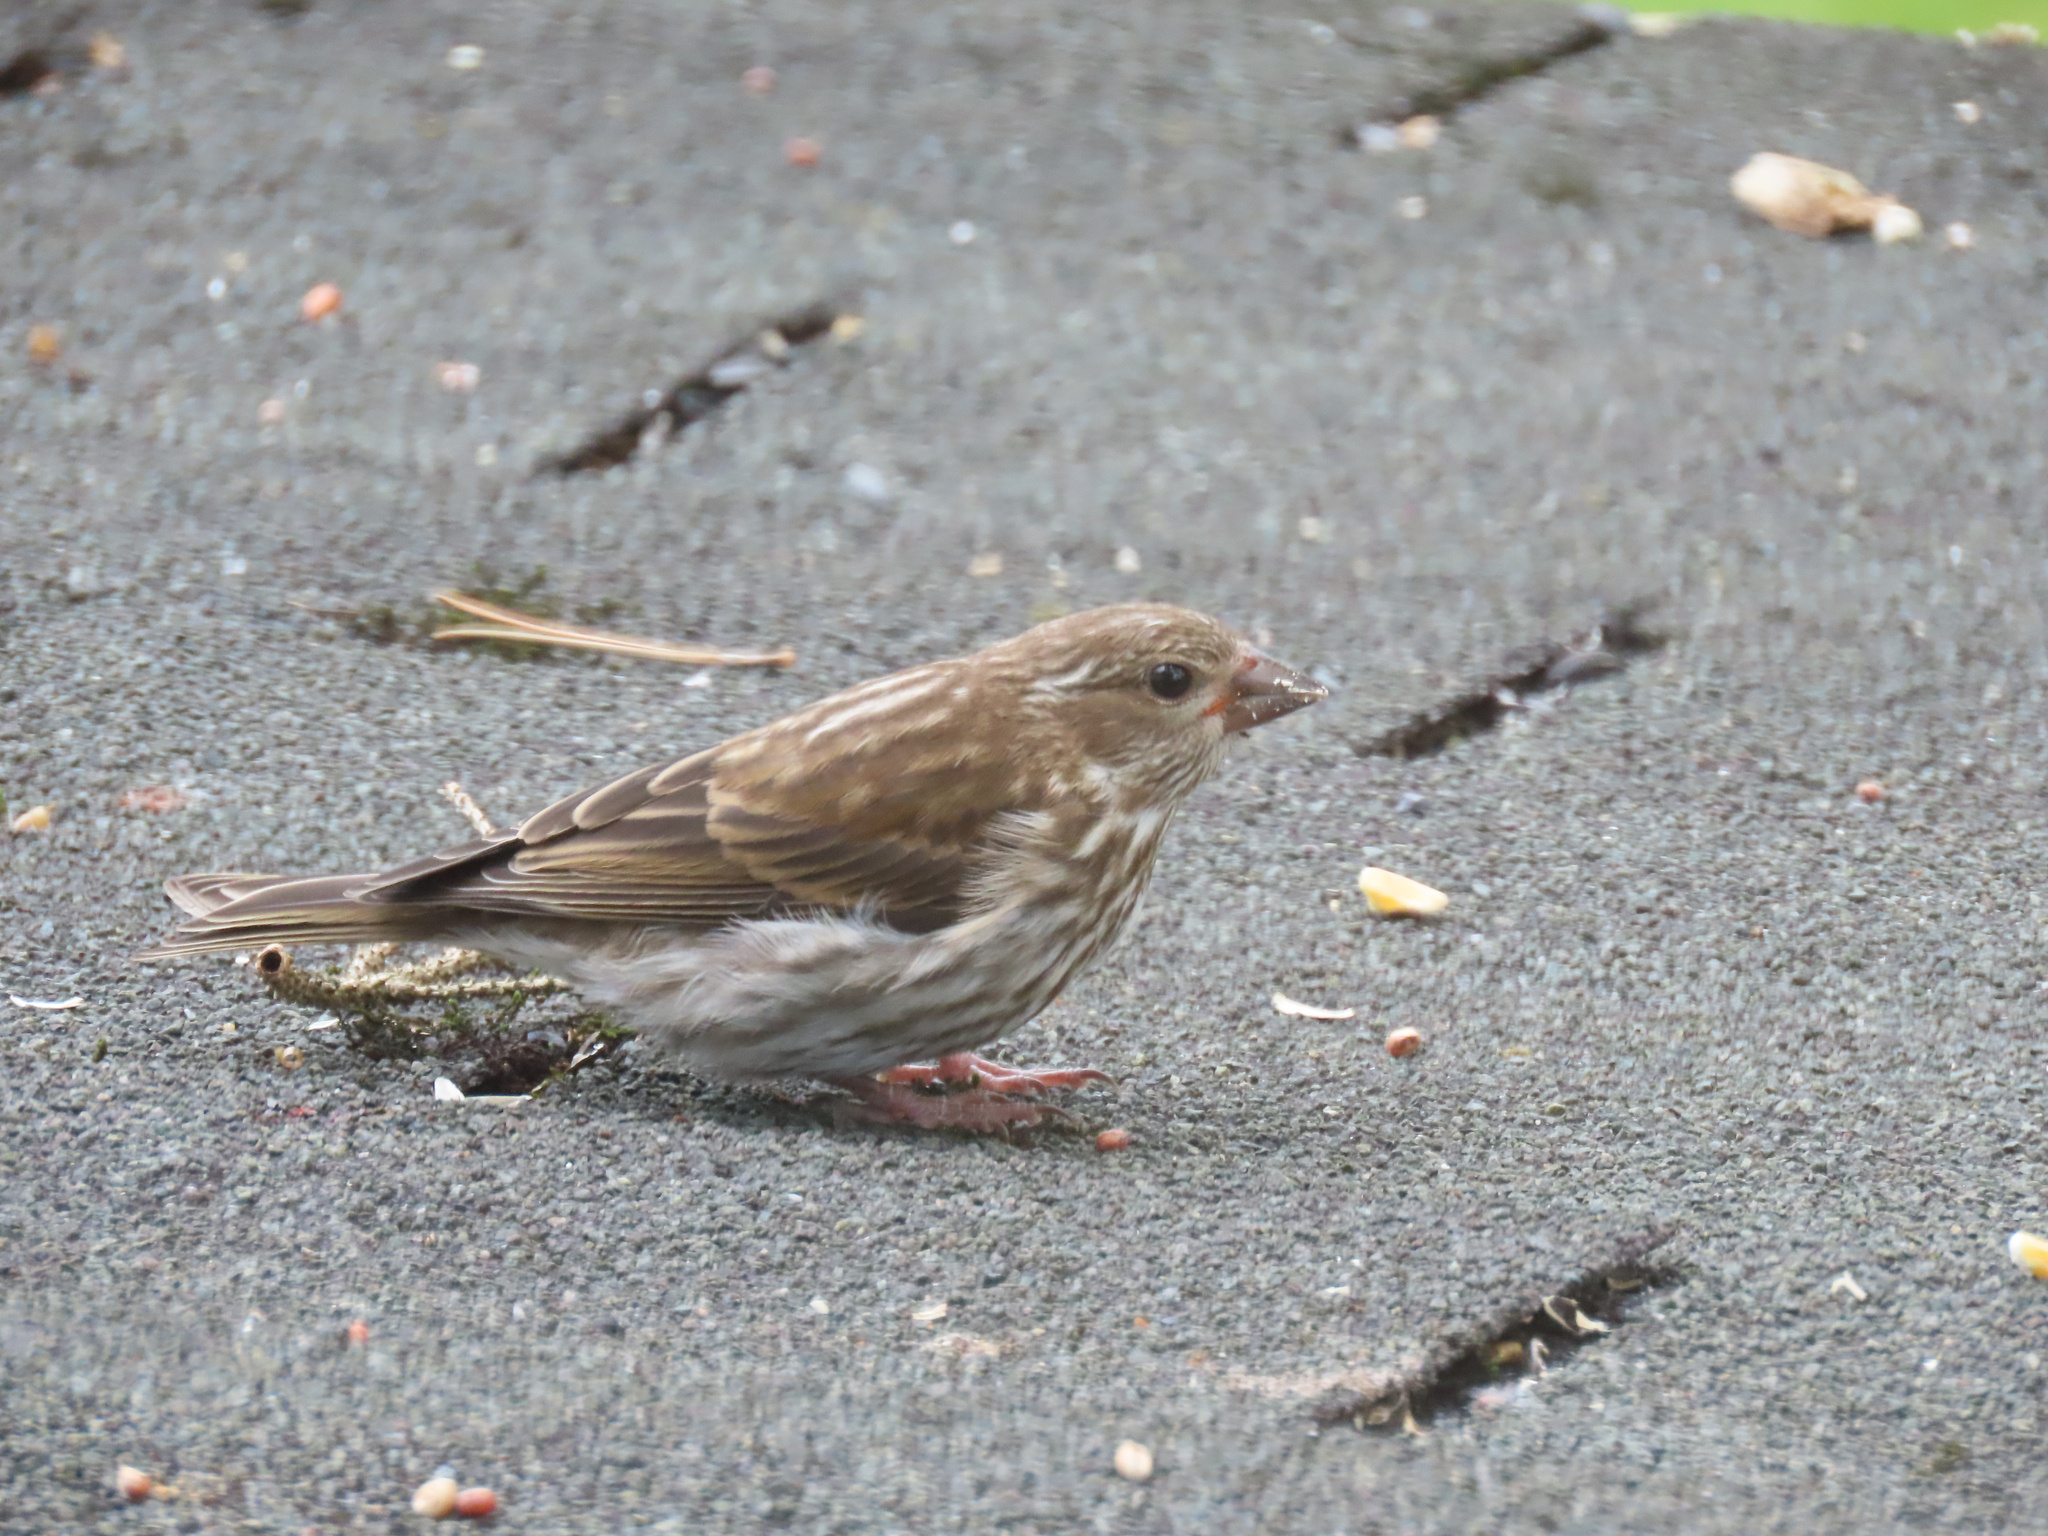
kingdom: Animalia
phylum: Chordata
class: Aves
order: Passeriformes
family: Fringillidae
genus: Haemorhous
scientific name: Haemorhous purpureus
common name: Purple finch
